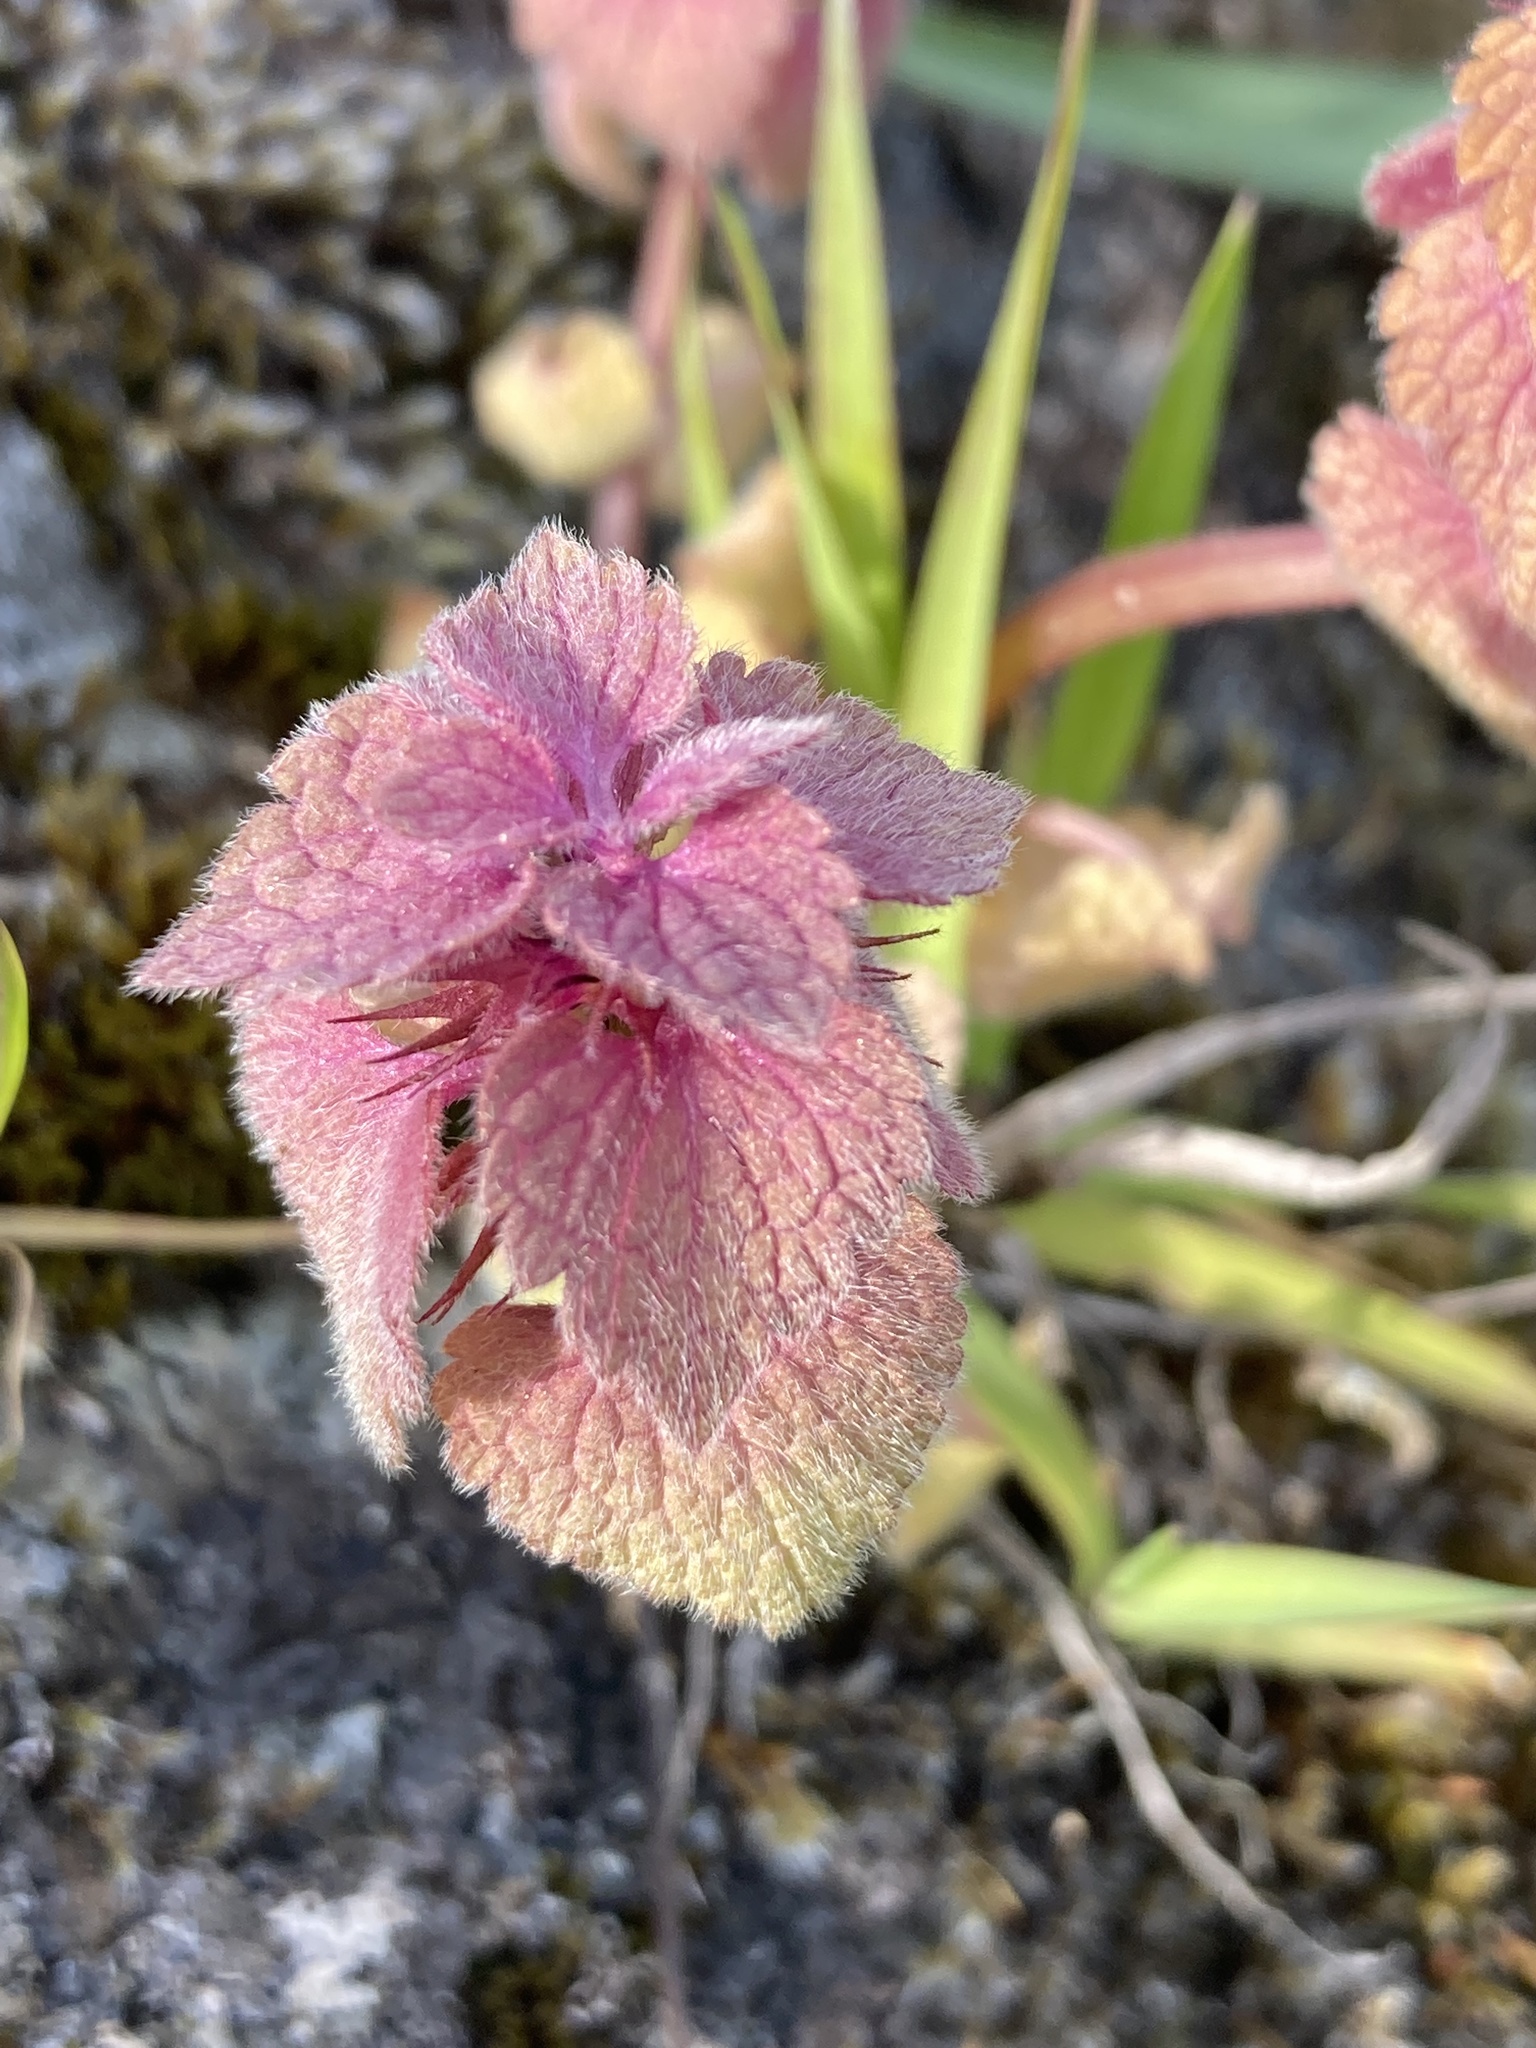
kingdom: Plantae
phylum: Tracheophyta
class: Magnoliopsida
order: Lamiales
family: Lamiaceae
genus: Lamium
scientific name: Lamium purpureum
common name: Red dead-nettle
